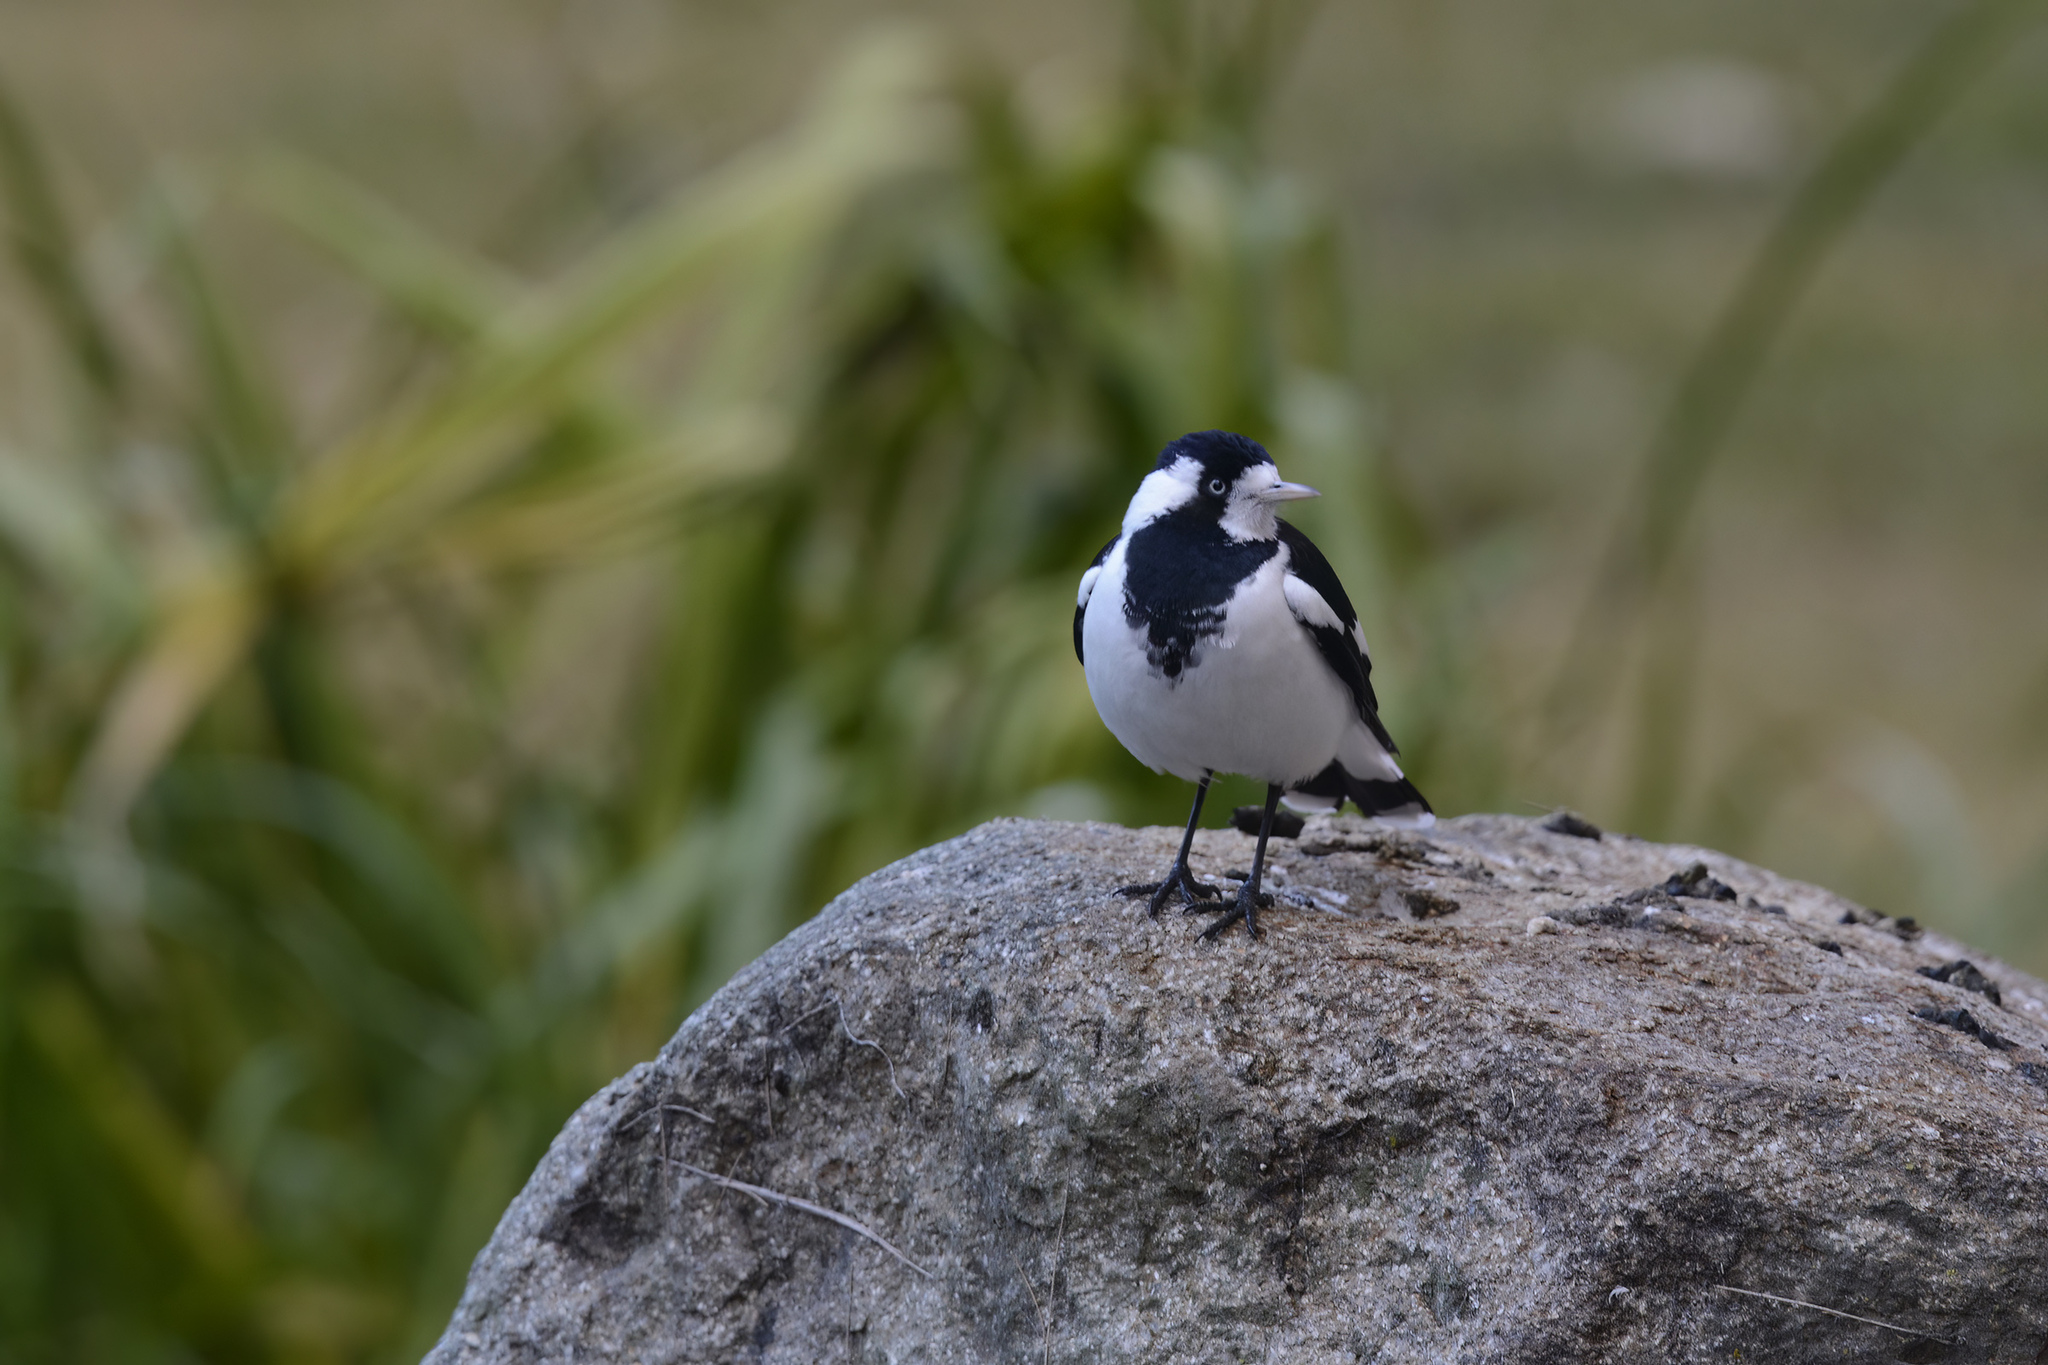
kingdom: Animalia
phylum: Chordata
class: Aves
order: Passeriformes
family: Monarchidae
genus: Grallina
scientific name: Grallina cyanoleuca
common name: Magpie-lark
